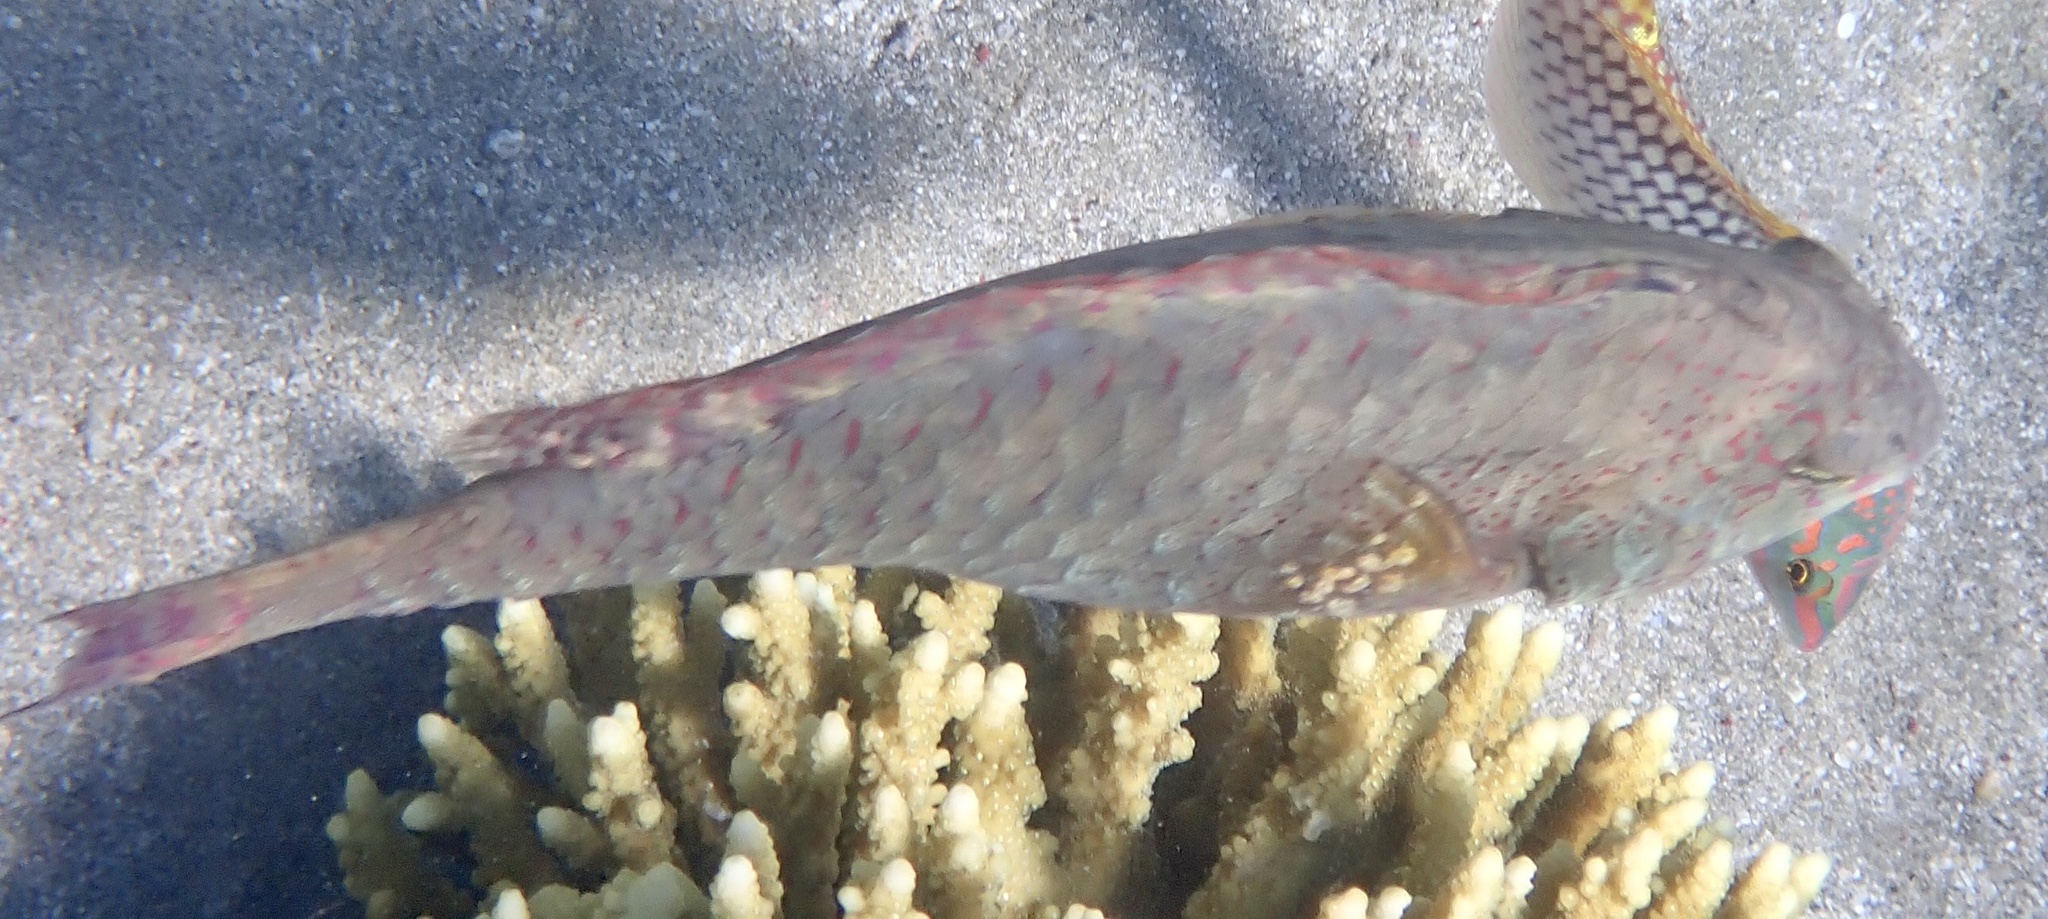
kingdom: Animalia
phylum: Chordata
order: Perciformes
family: Scaridae
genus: Calotomus
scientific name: Calotomus viridescens
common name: Dotted parrotfish
